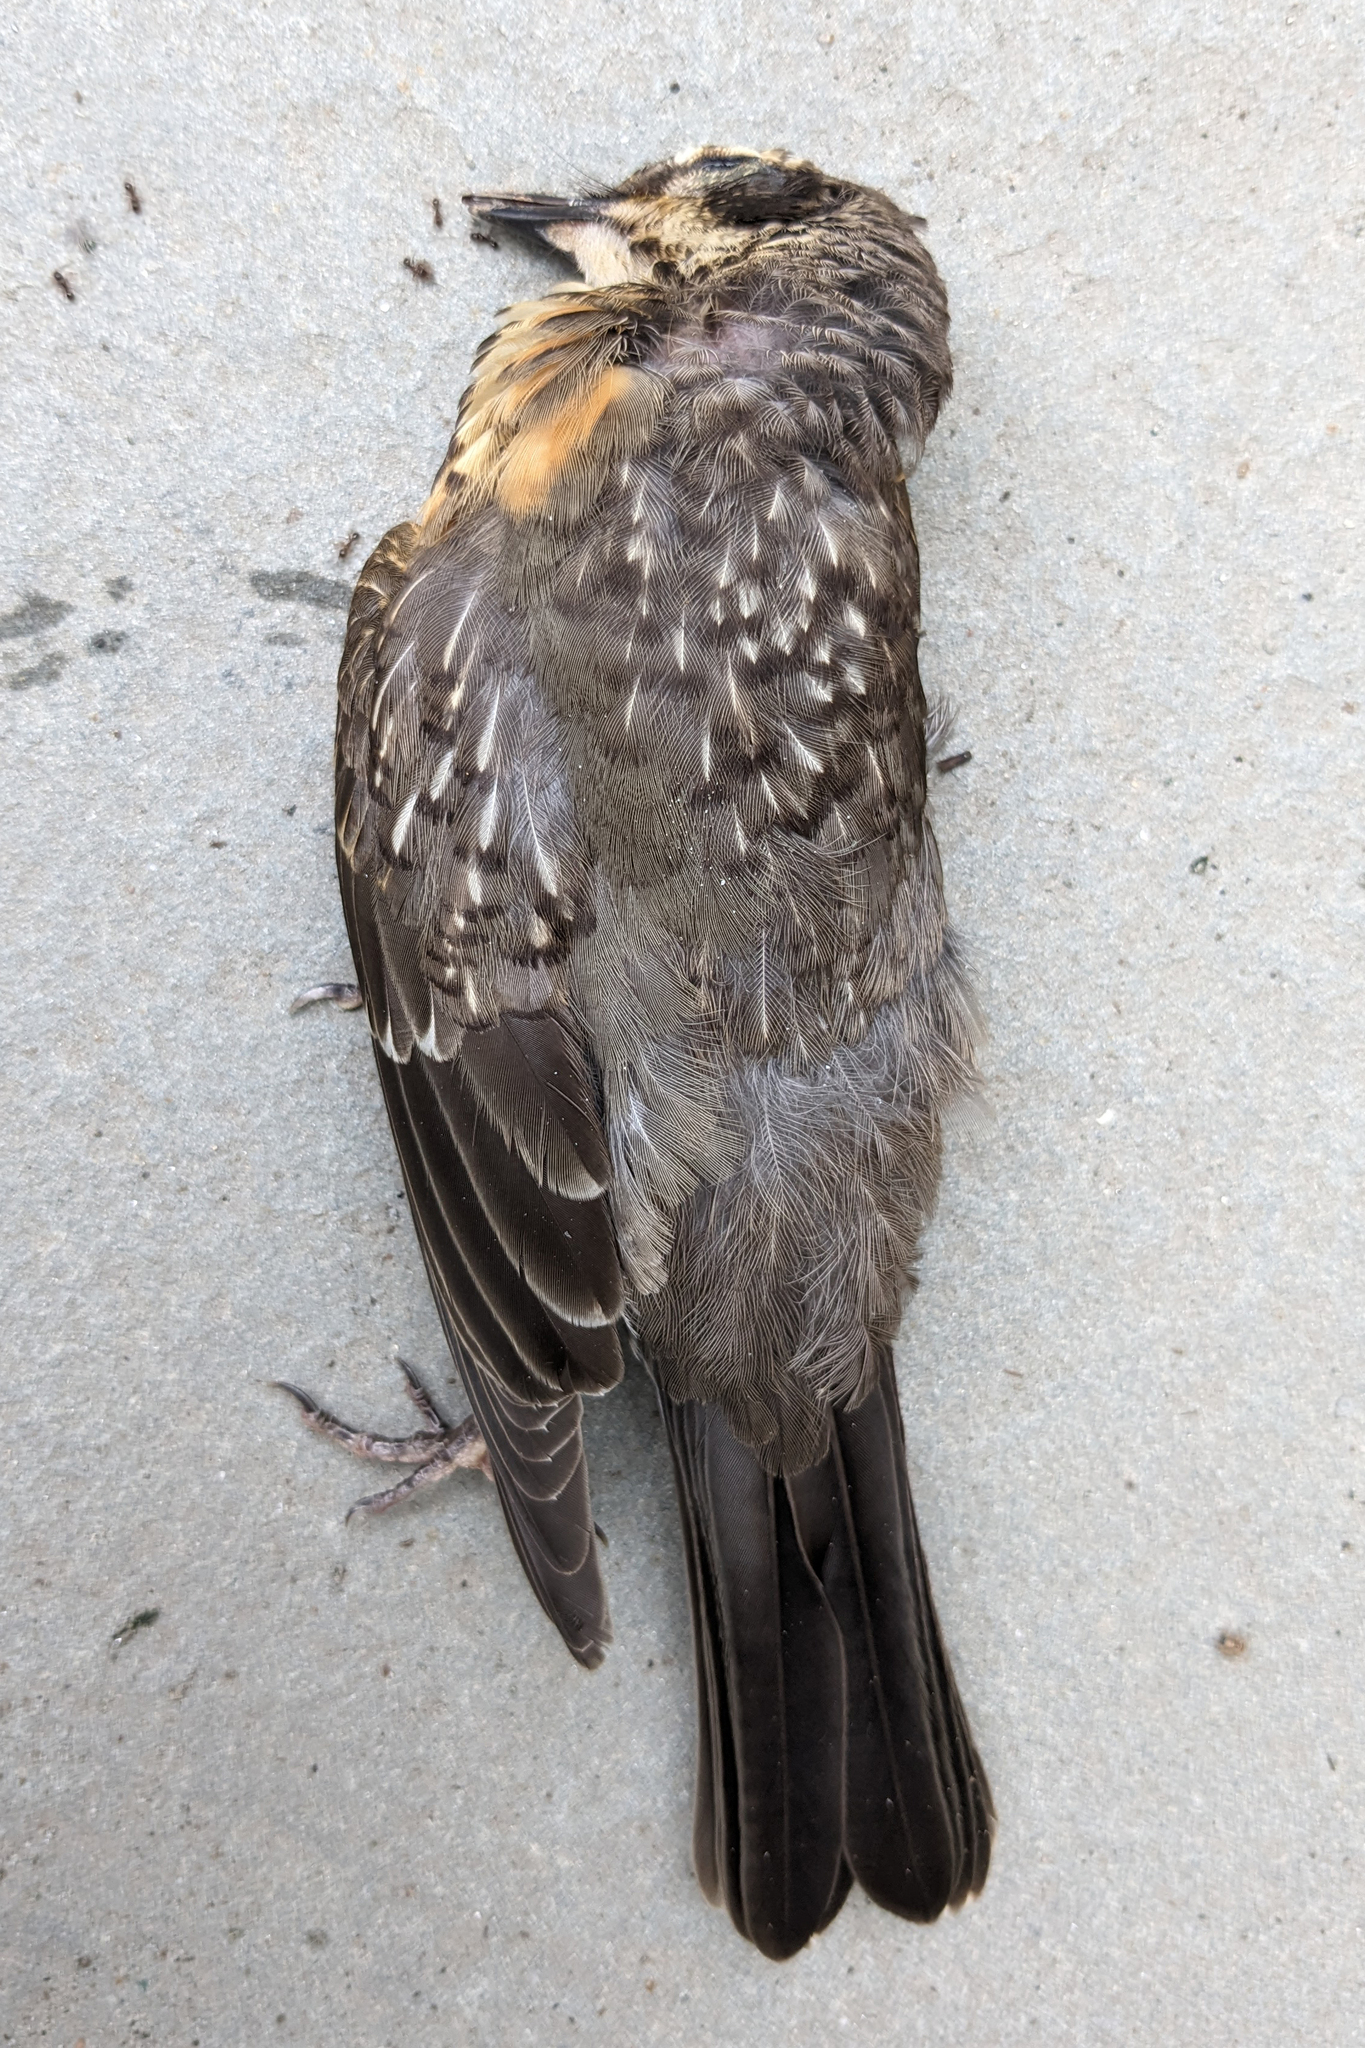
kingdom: Animalia
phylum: Chordata
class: Aves
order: Passeriformes
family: Turdidae
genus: Turdus
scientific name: Turdus migratorius
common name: American robin
